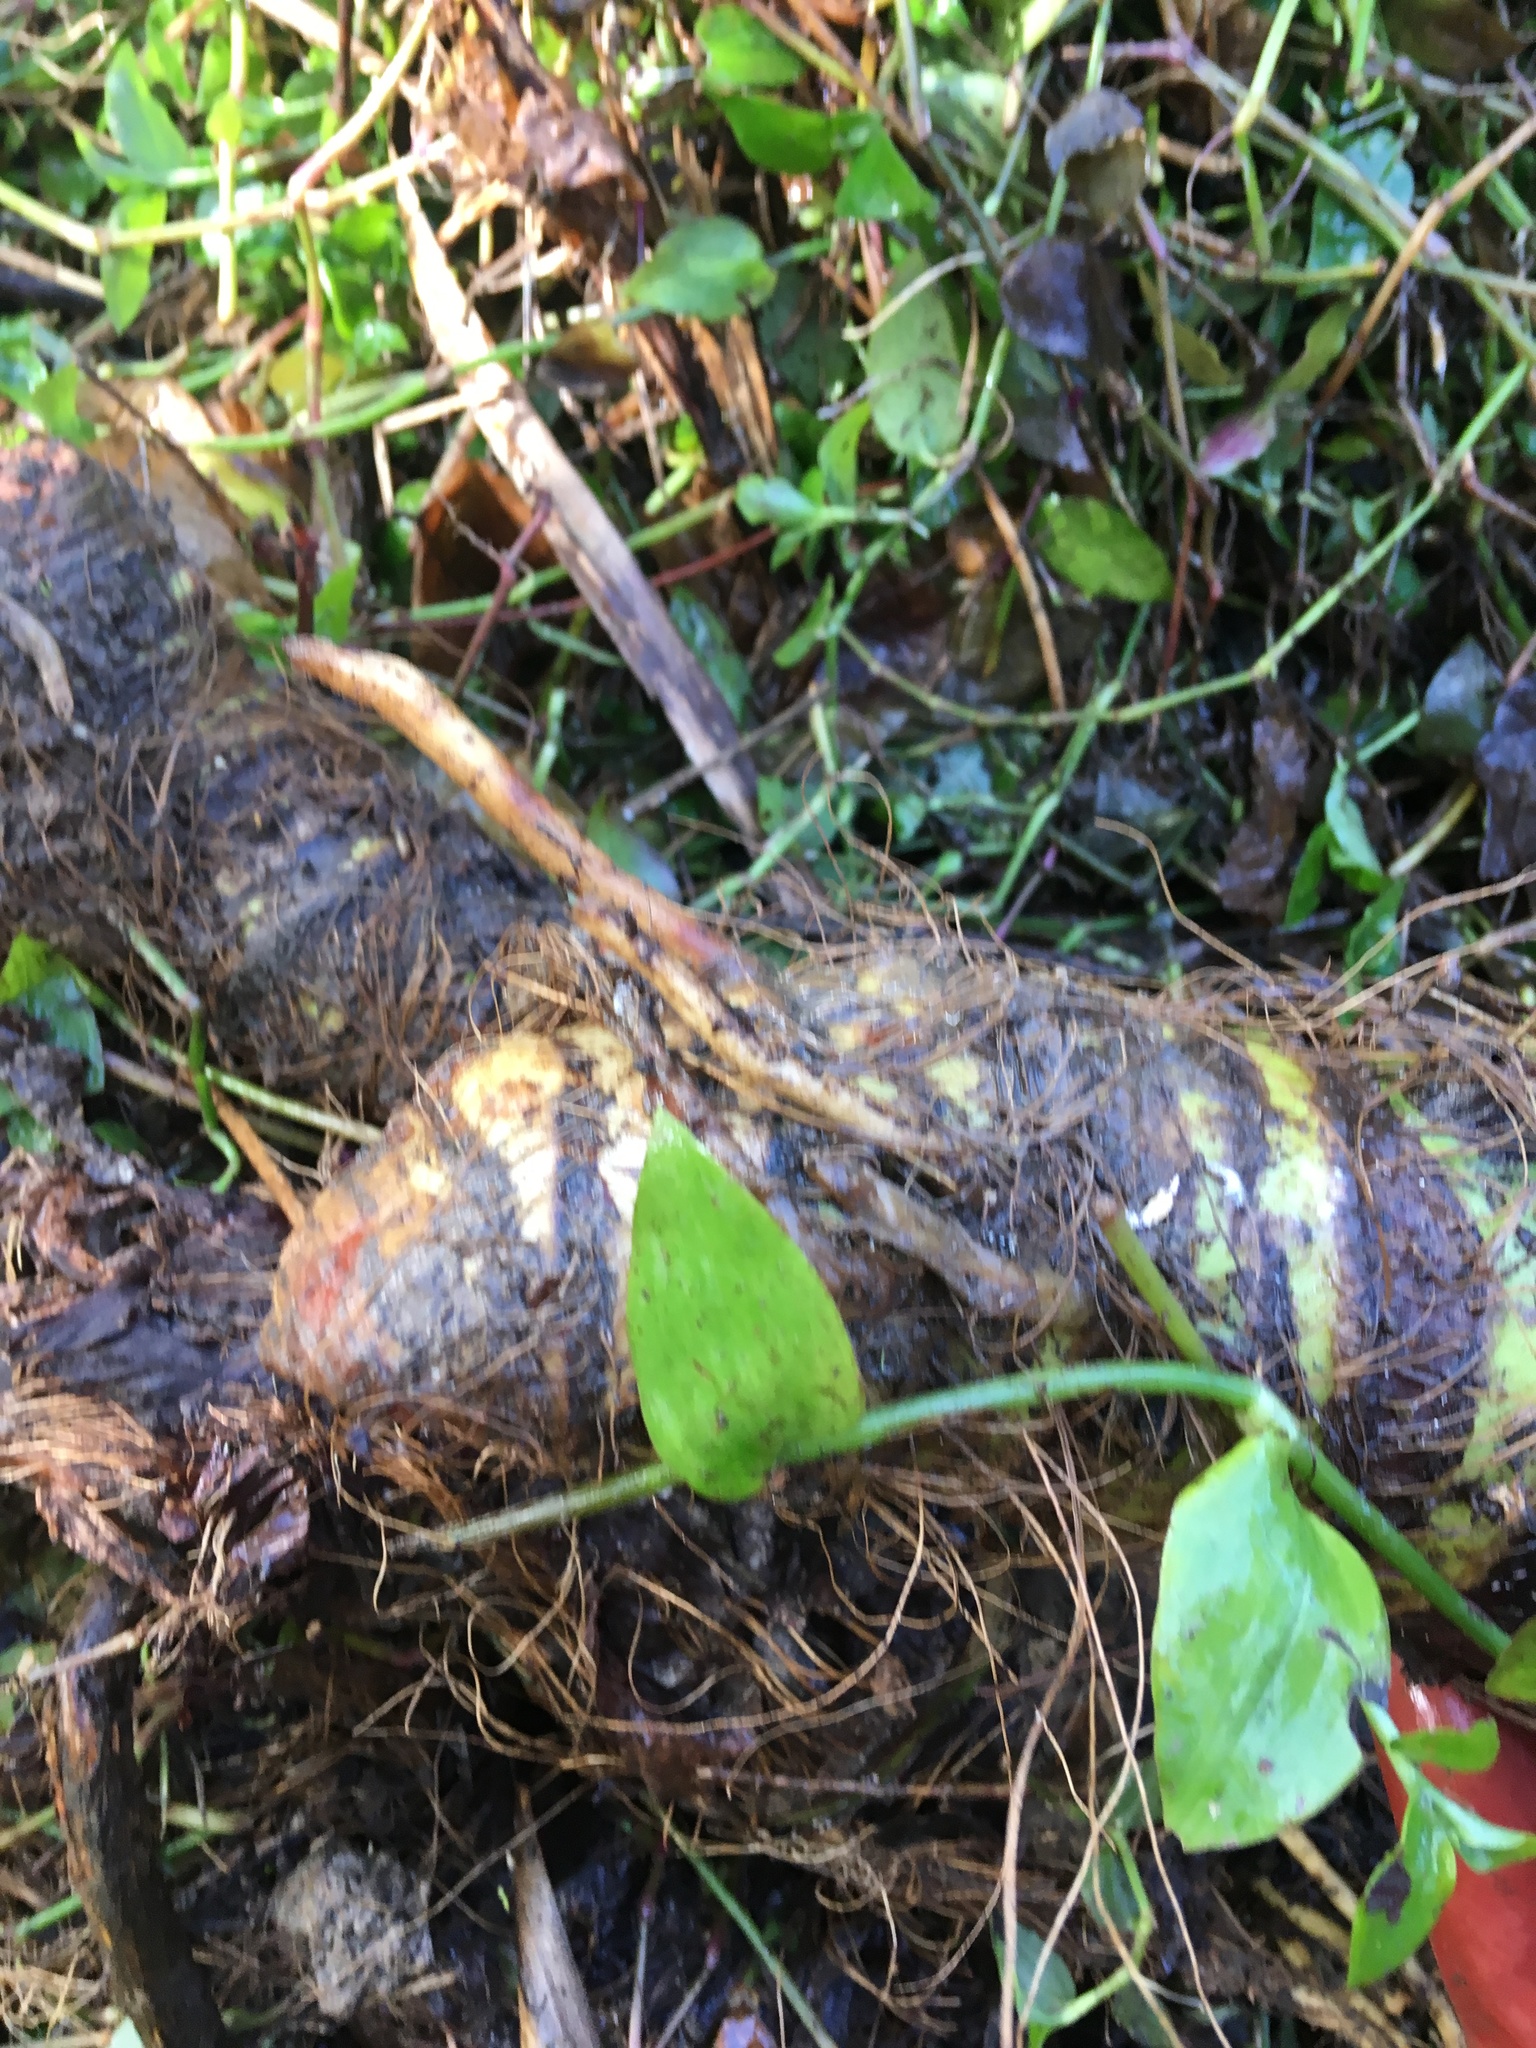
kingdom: Plantae
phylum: Tracheophyta
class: Liliopsida
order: Alismatales
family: Araceae
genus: Alocasia
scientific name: Alocasia brisbanensis
